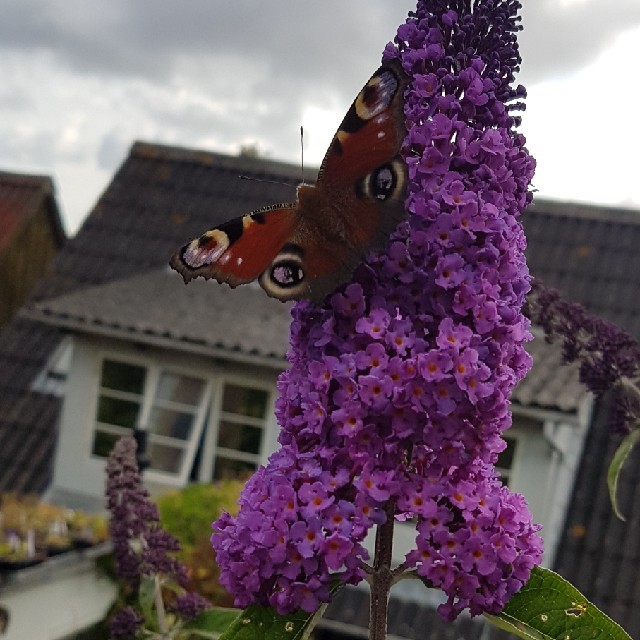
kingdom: Animalia
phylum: Arthropoda
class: Insecta
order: Lepidoptera
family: Nymphalidae
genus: Aglais
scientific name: Aglais io
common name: Peacock
